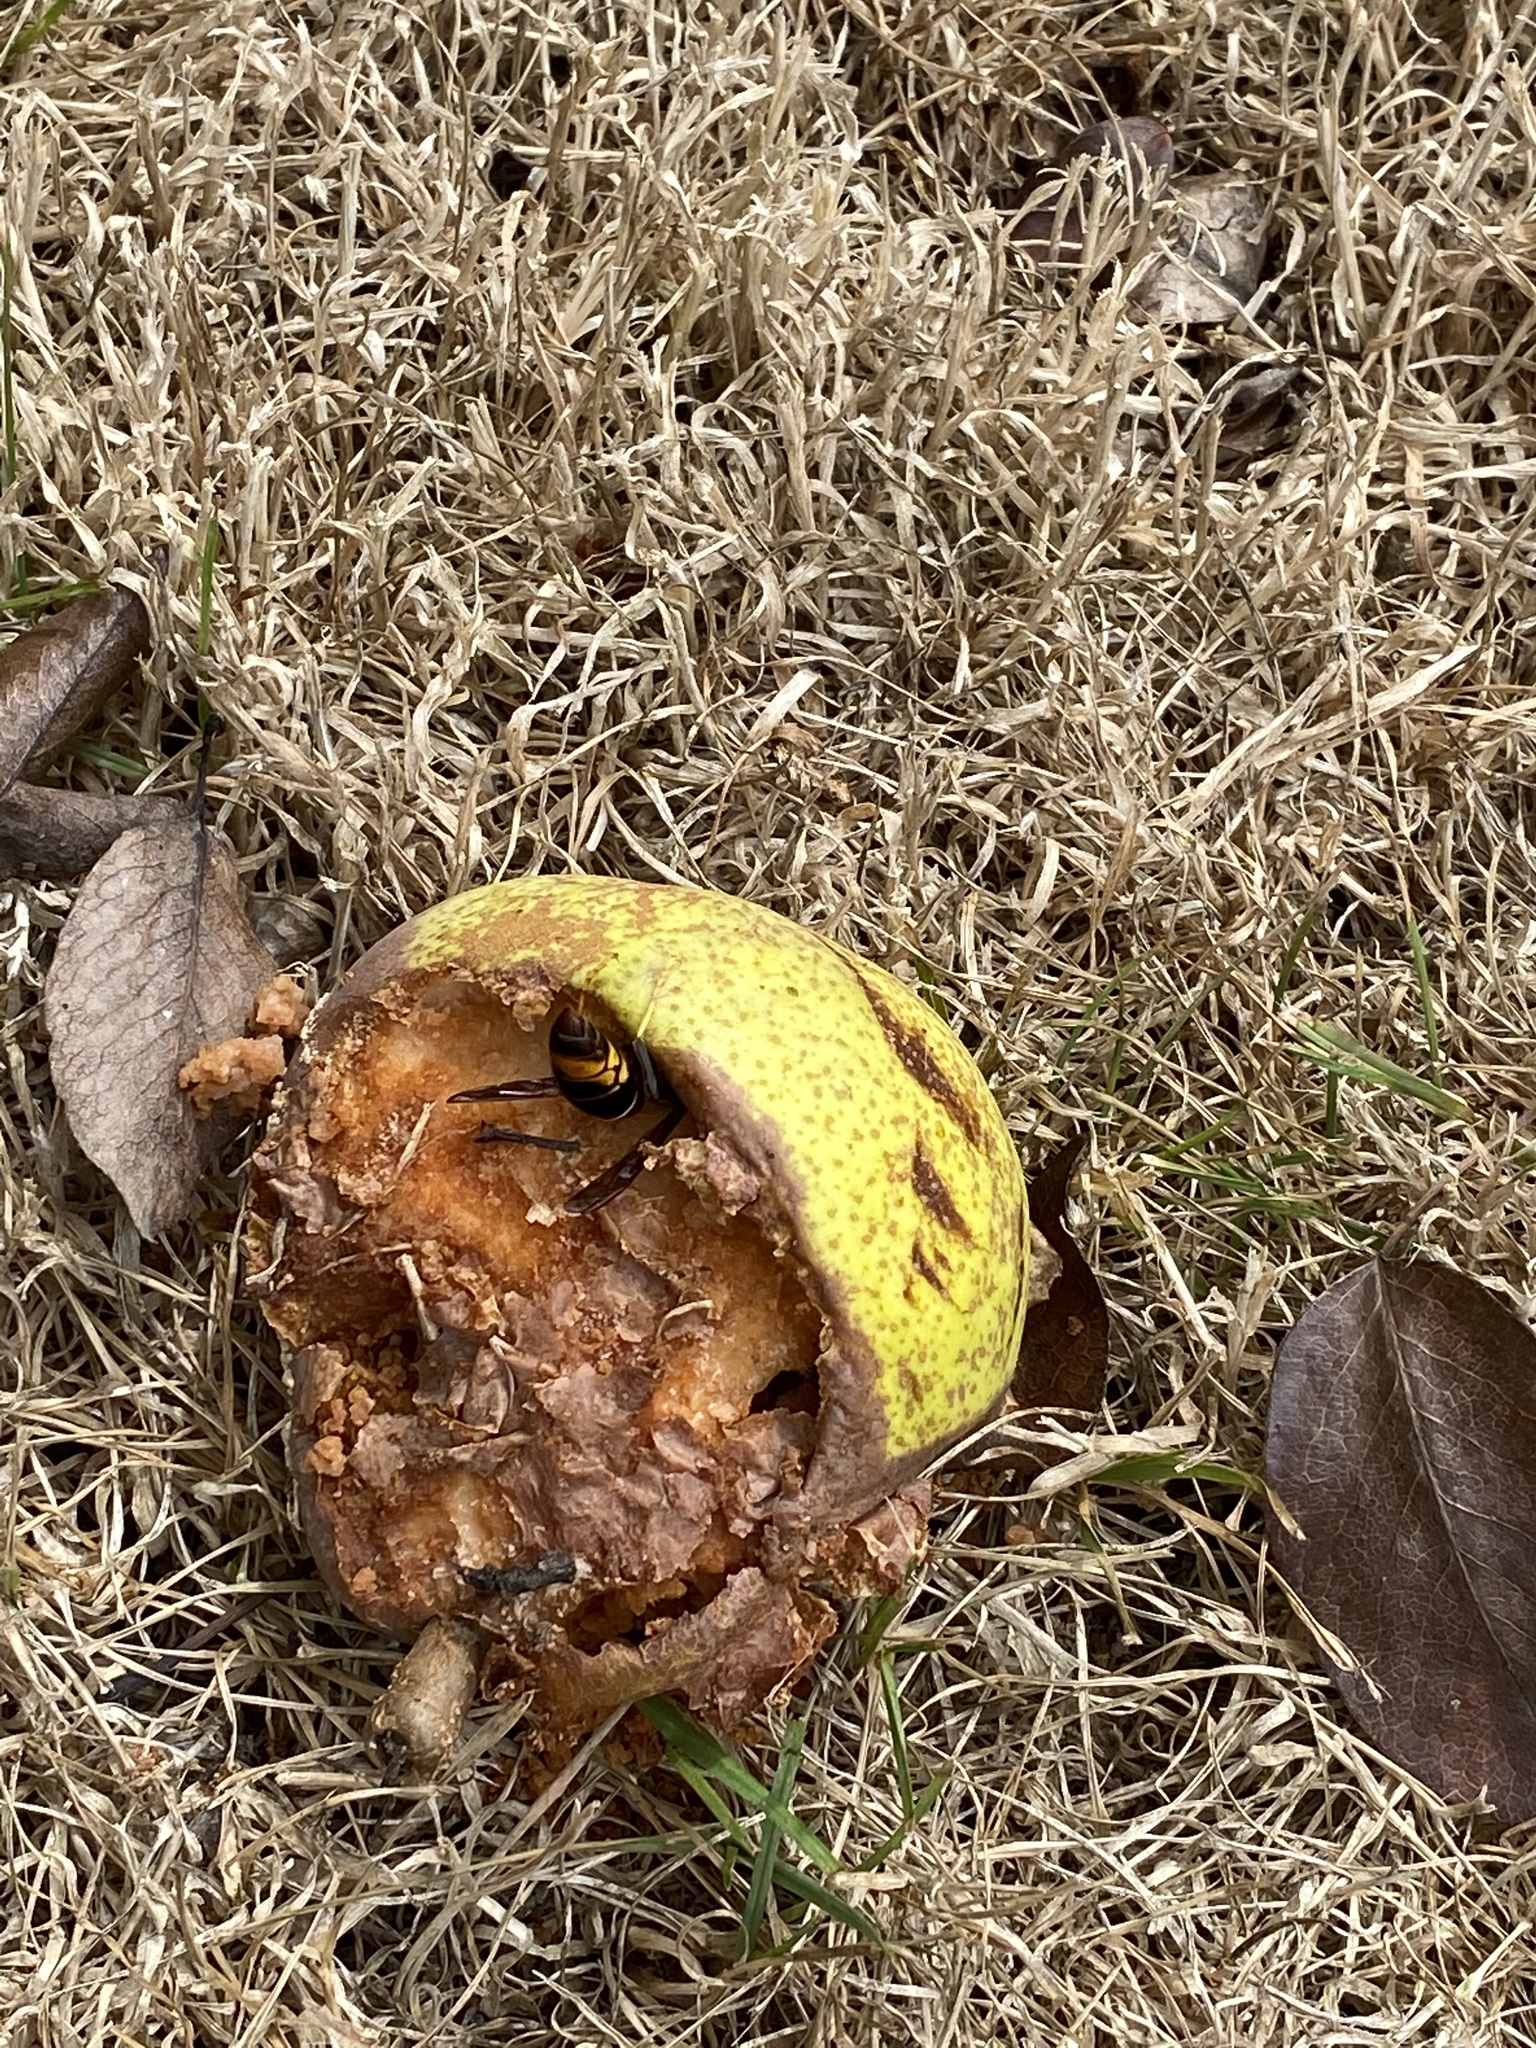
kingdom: Animalia
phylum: Arthropoda
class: Insecta
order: Hymenoptera
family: Vespidae
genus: Vespa
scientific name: Vespa velutina
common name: Asian hornet
